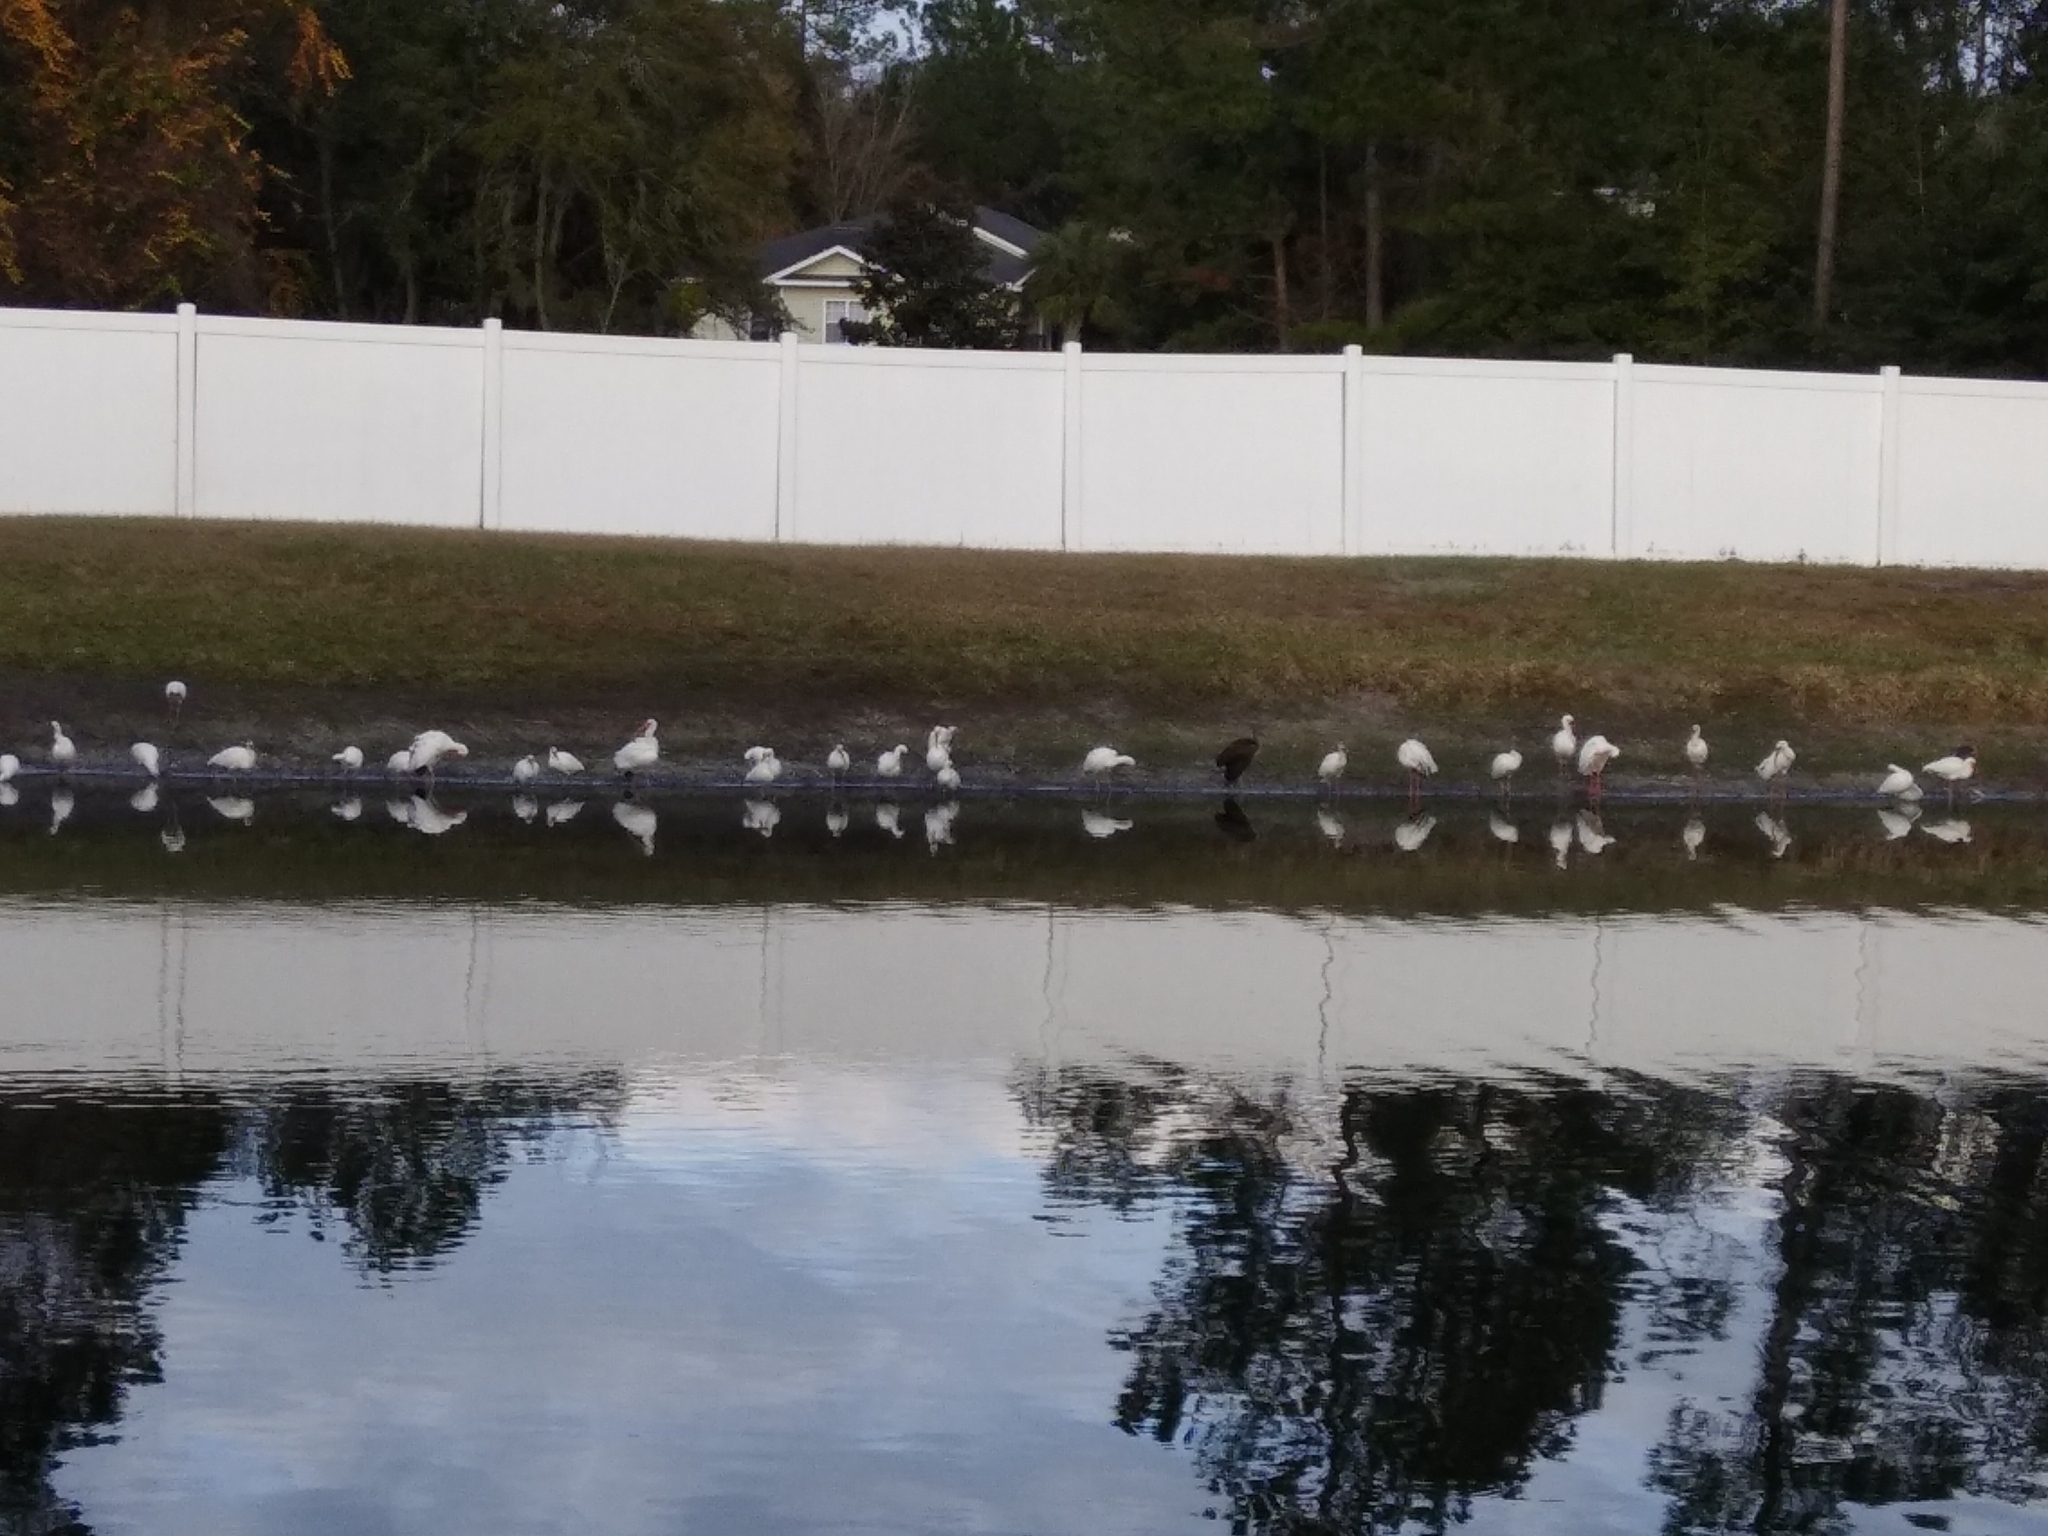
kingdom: Animalia
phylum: Chordata
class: Aves
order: Pelecaniformes
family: Threskiornithidae
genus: Eudocimus
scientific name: Eudocimus albus
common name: White ibis
